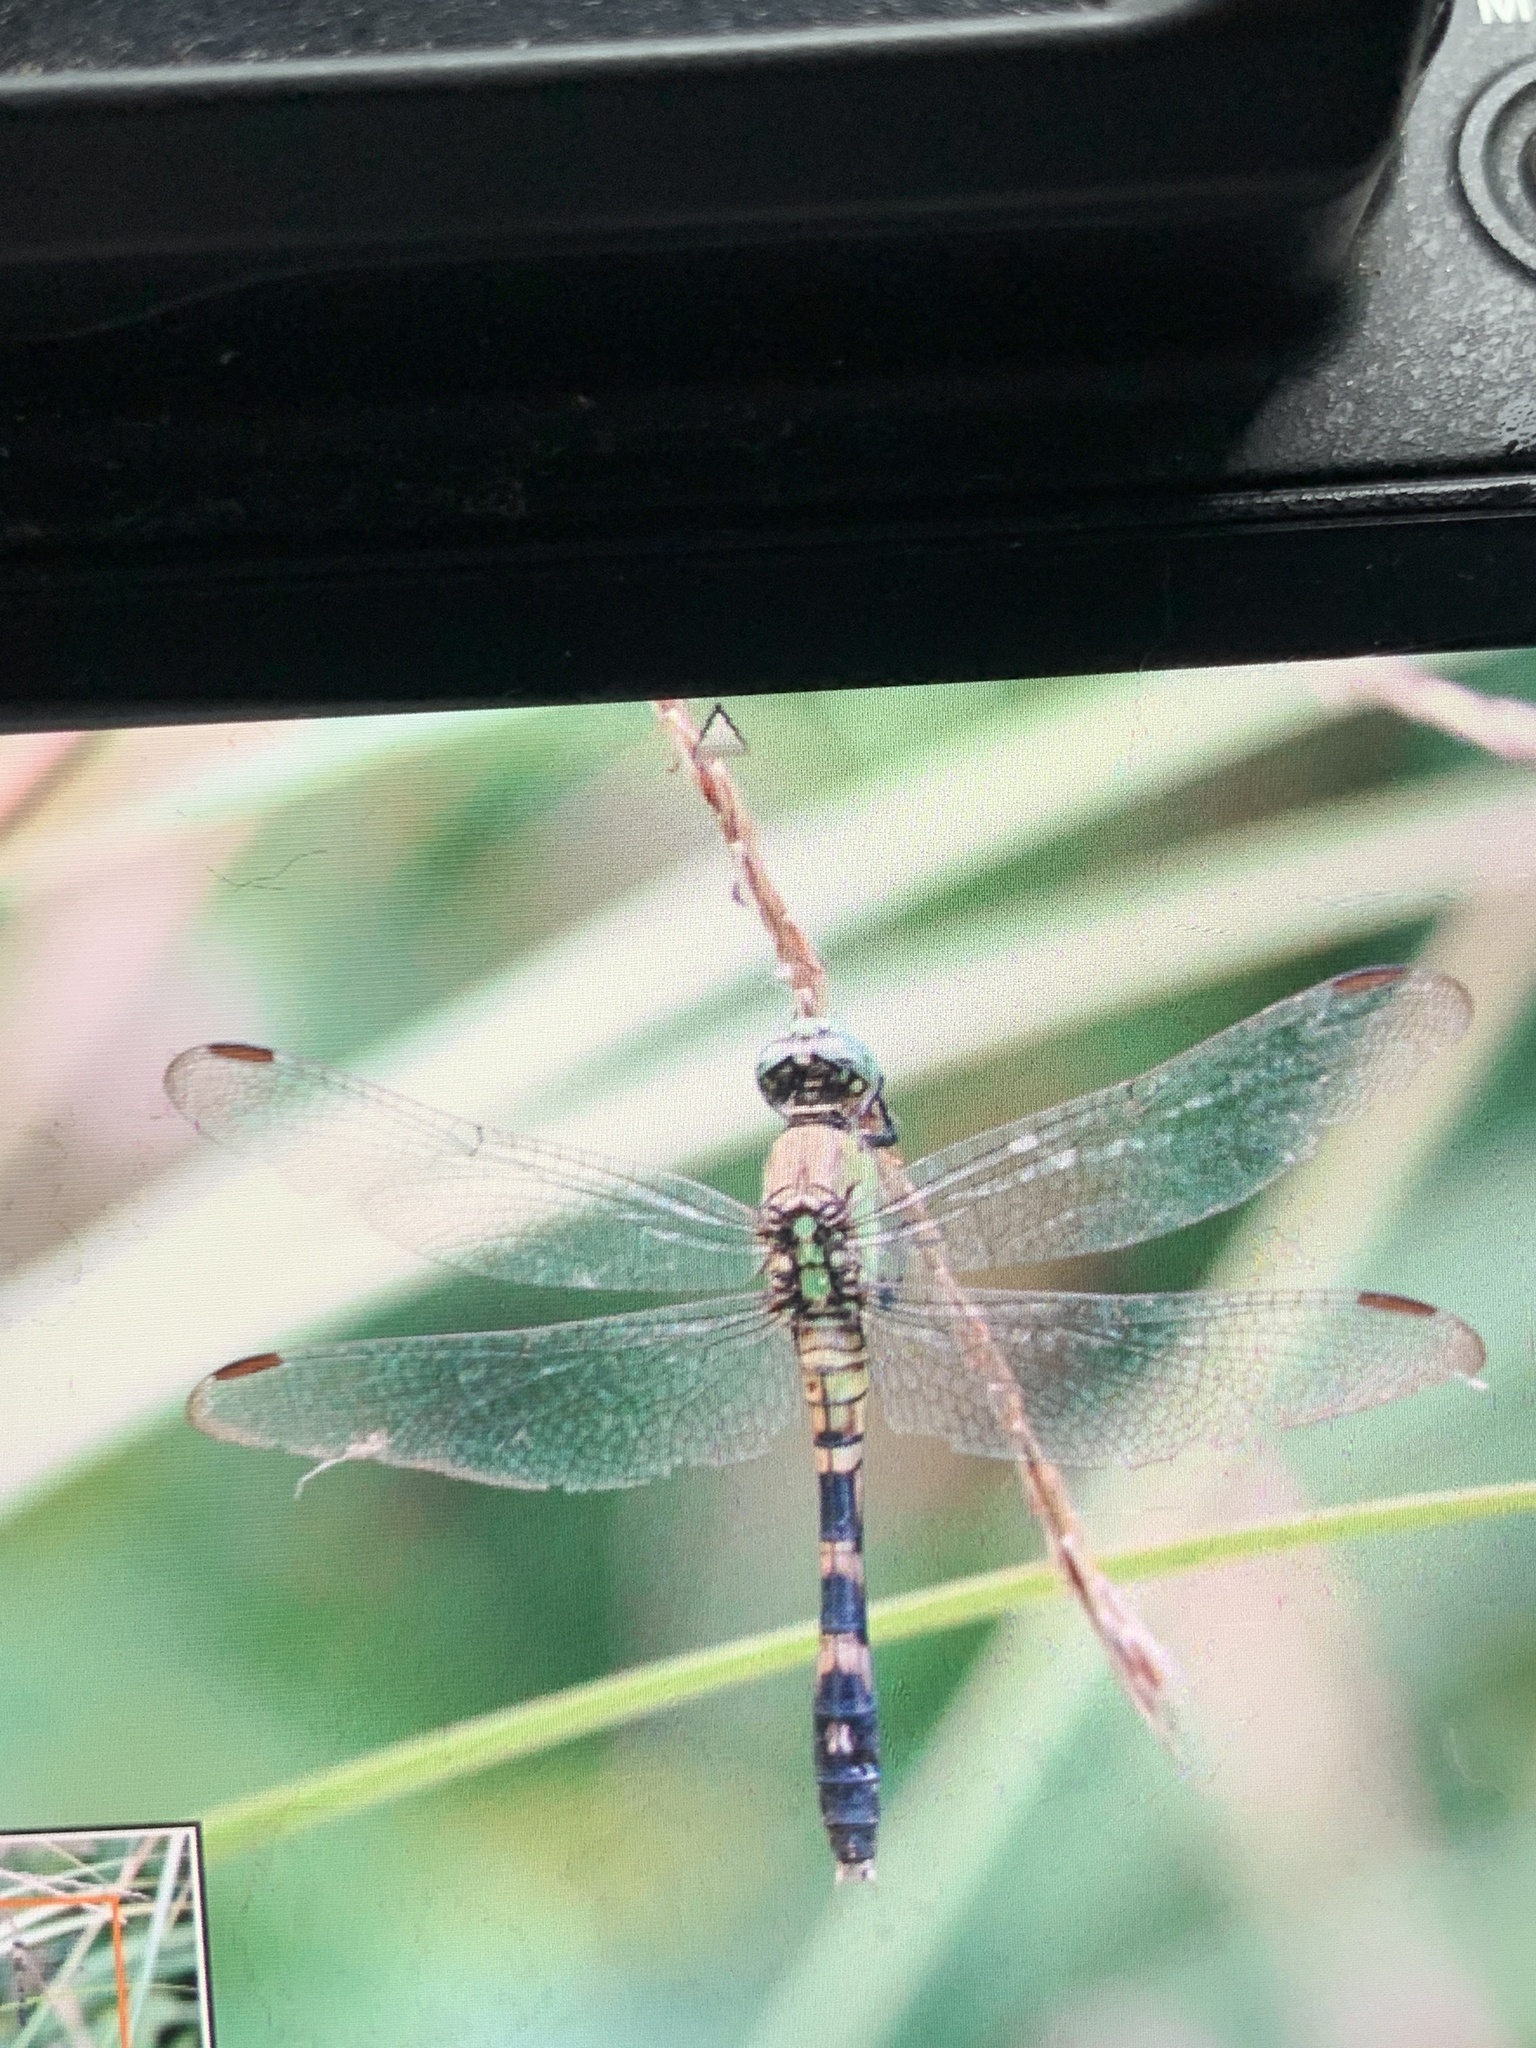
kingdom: Animalia
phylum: Arthropoda
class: Insecta
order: Odonata
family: Libellulidae
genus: Erythemis
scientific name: Erythemis simplicicollis
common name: Eastern pondhawk
